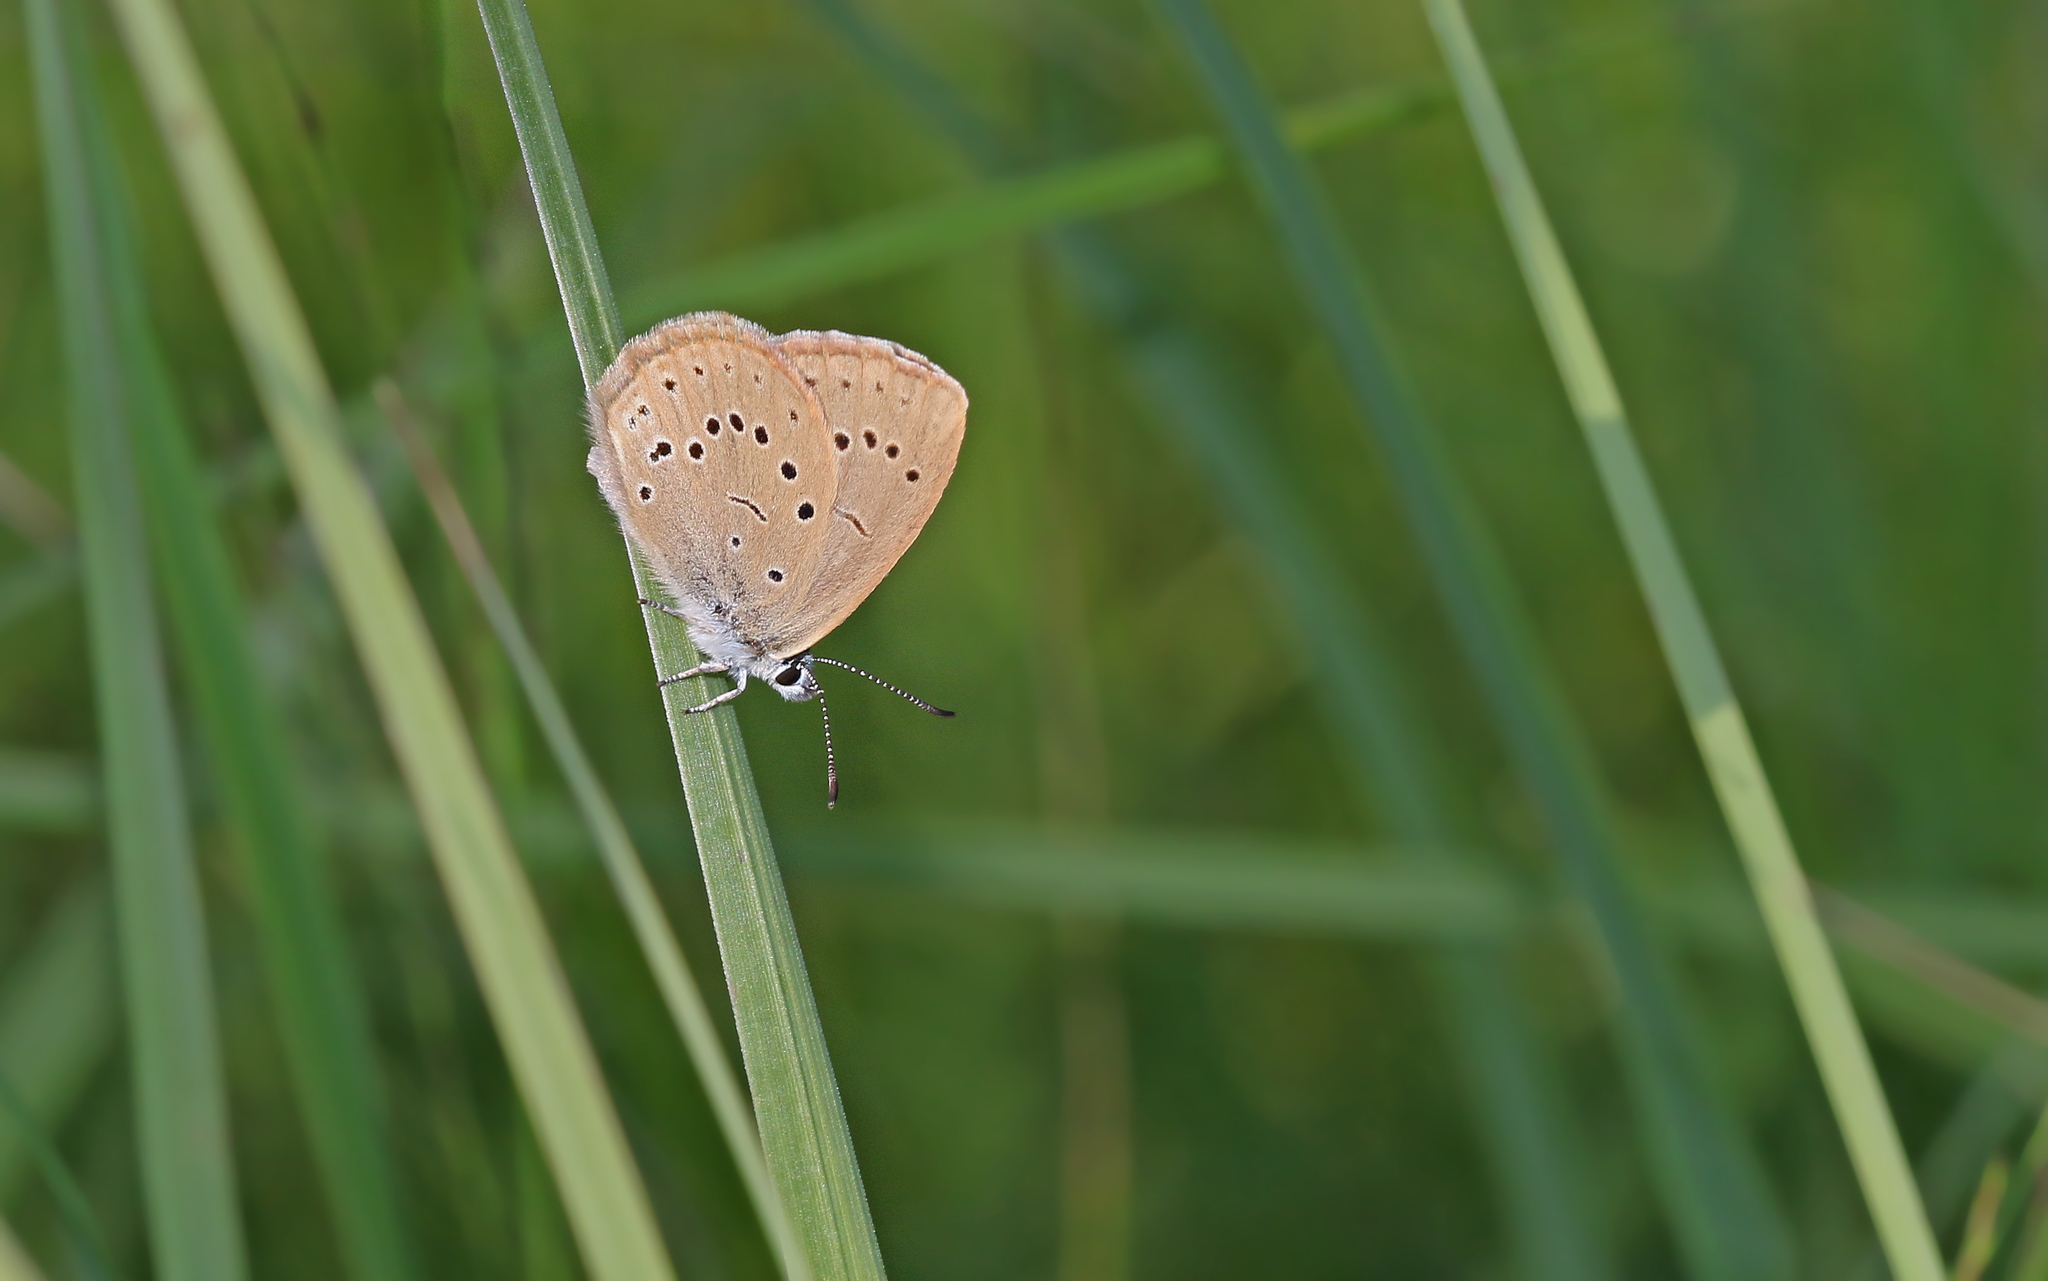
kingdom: Animalia
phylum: Arthropoda
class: Insecta
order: Lepidoptera
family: Lycaenidae
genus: Phengaris
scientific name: Phengaris teleius
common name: Scarce large blue
